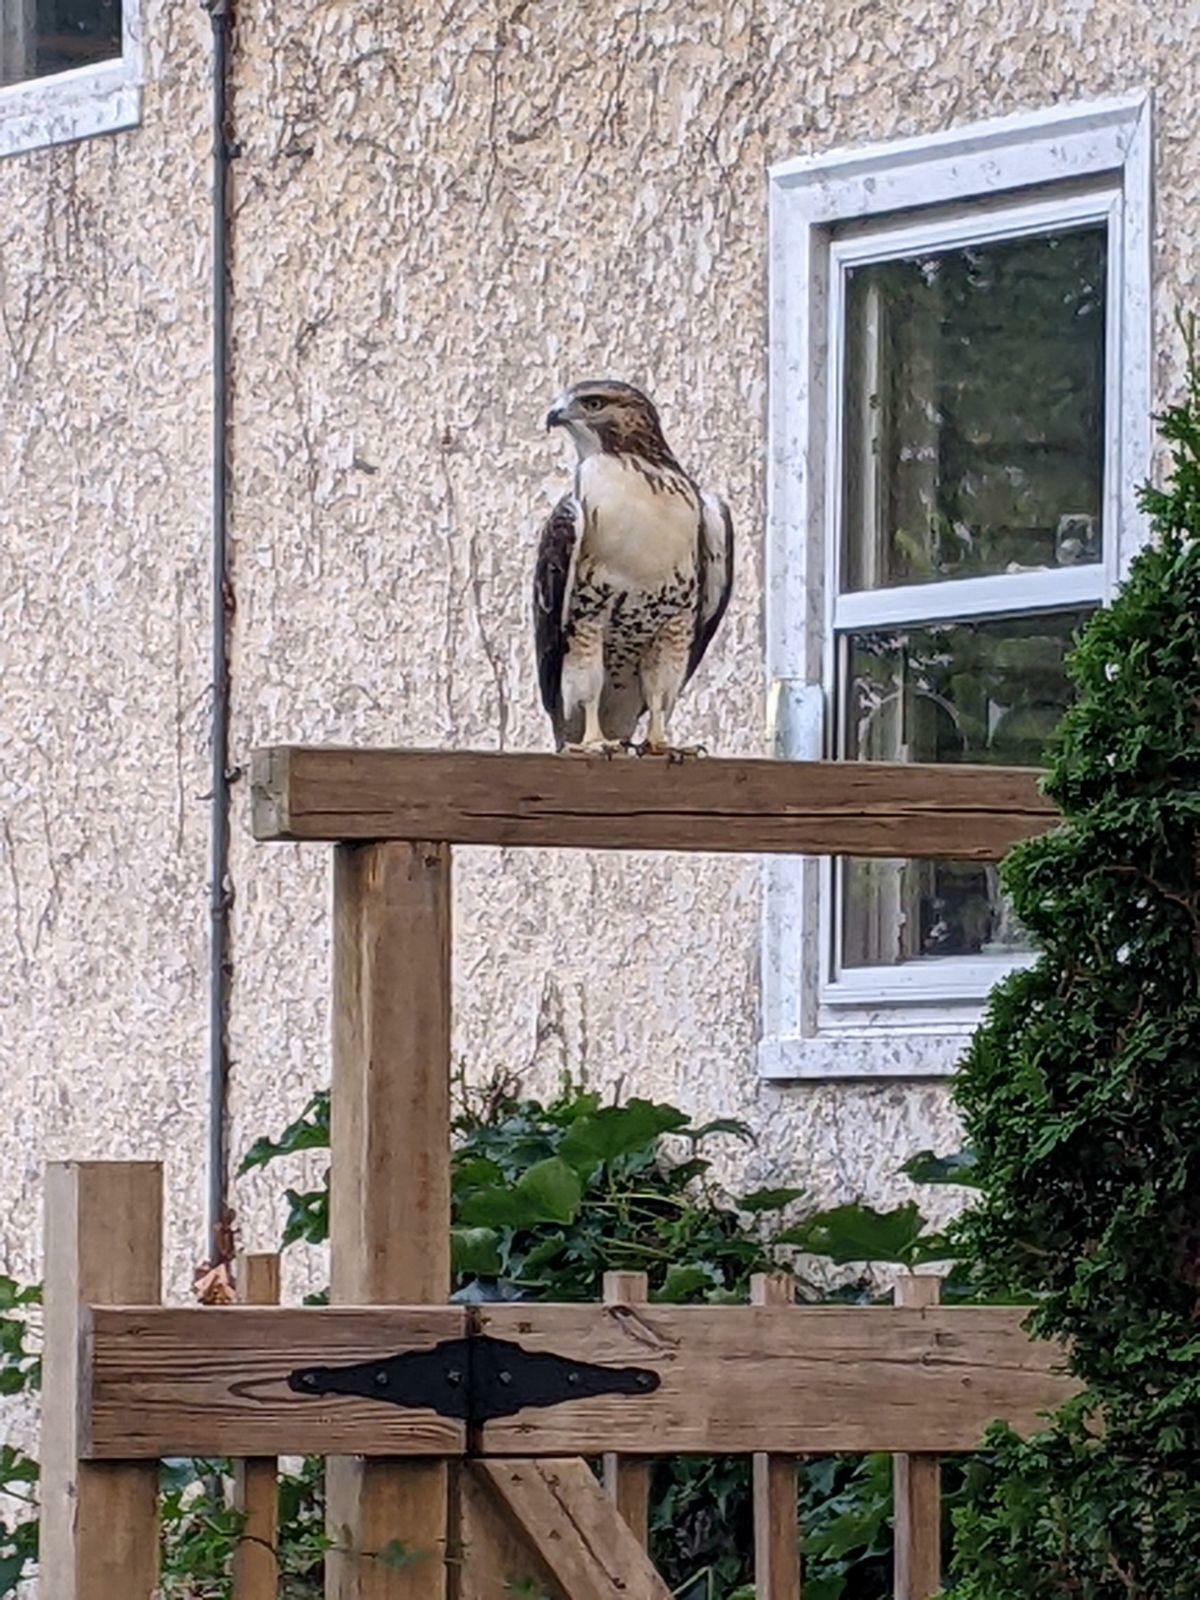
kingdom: Animalia
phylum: Chordata
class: Aves
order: Accipitriformes
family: Accipitridae
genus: Buteo
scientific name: Buteo jamaicensis
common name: Red-tailed hawk
